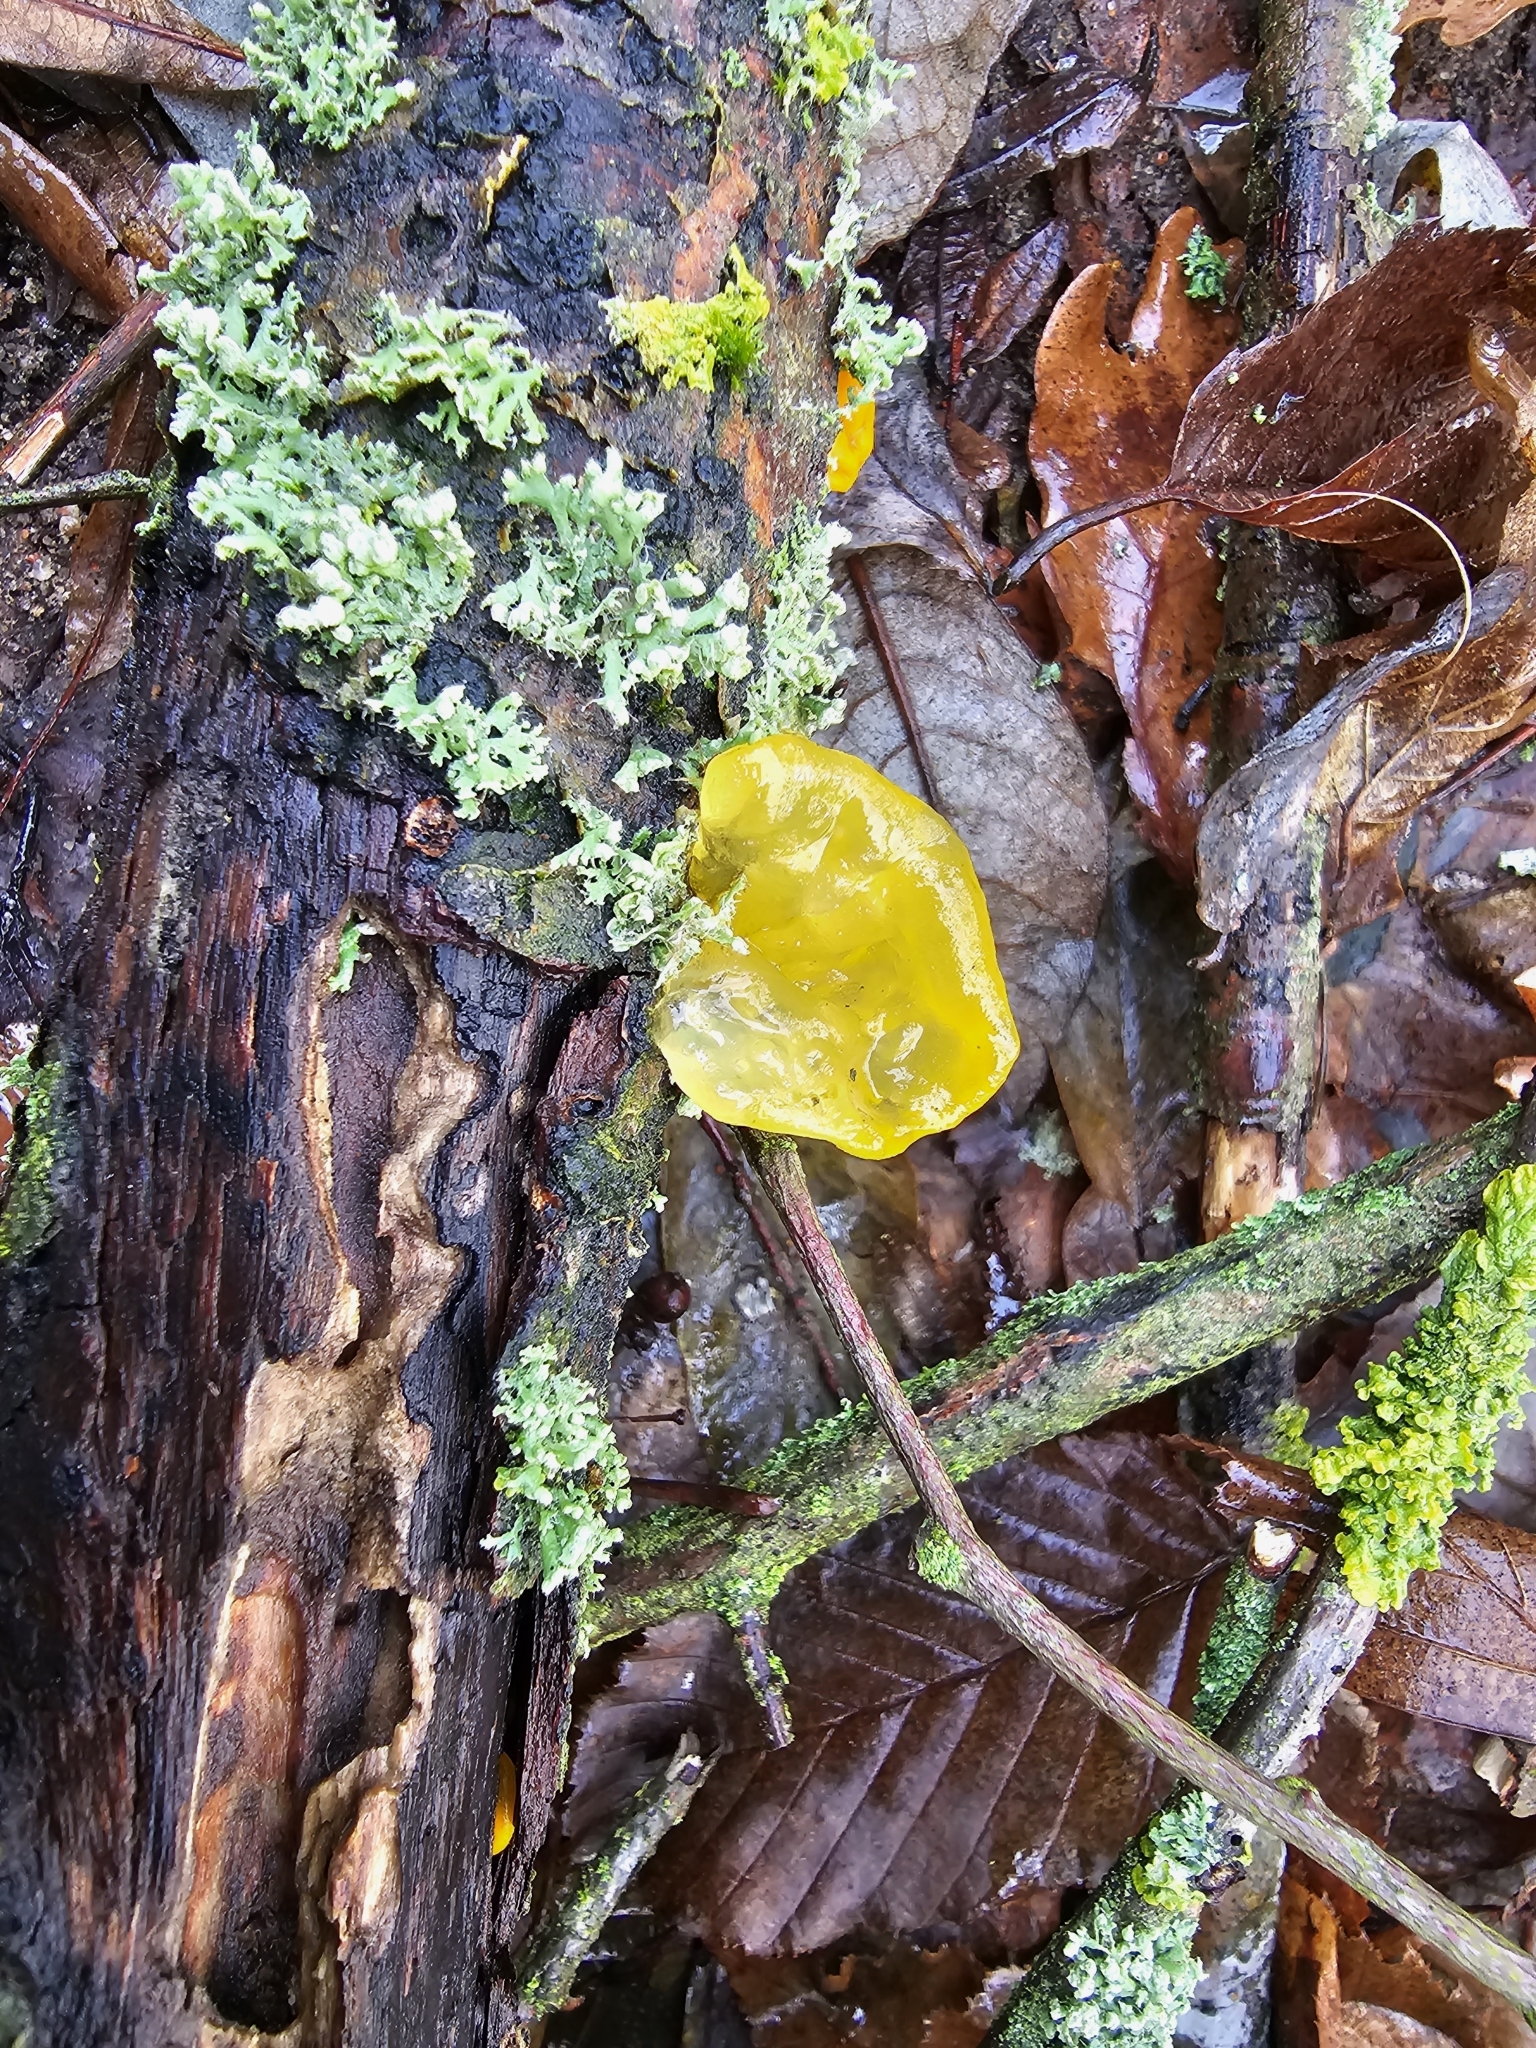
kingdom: Fungi
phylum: Basidiomycota
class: Tremellomycetes
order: Tremellales
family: Tremellaceae
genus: Tremella
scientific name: Tremella mesenterica
